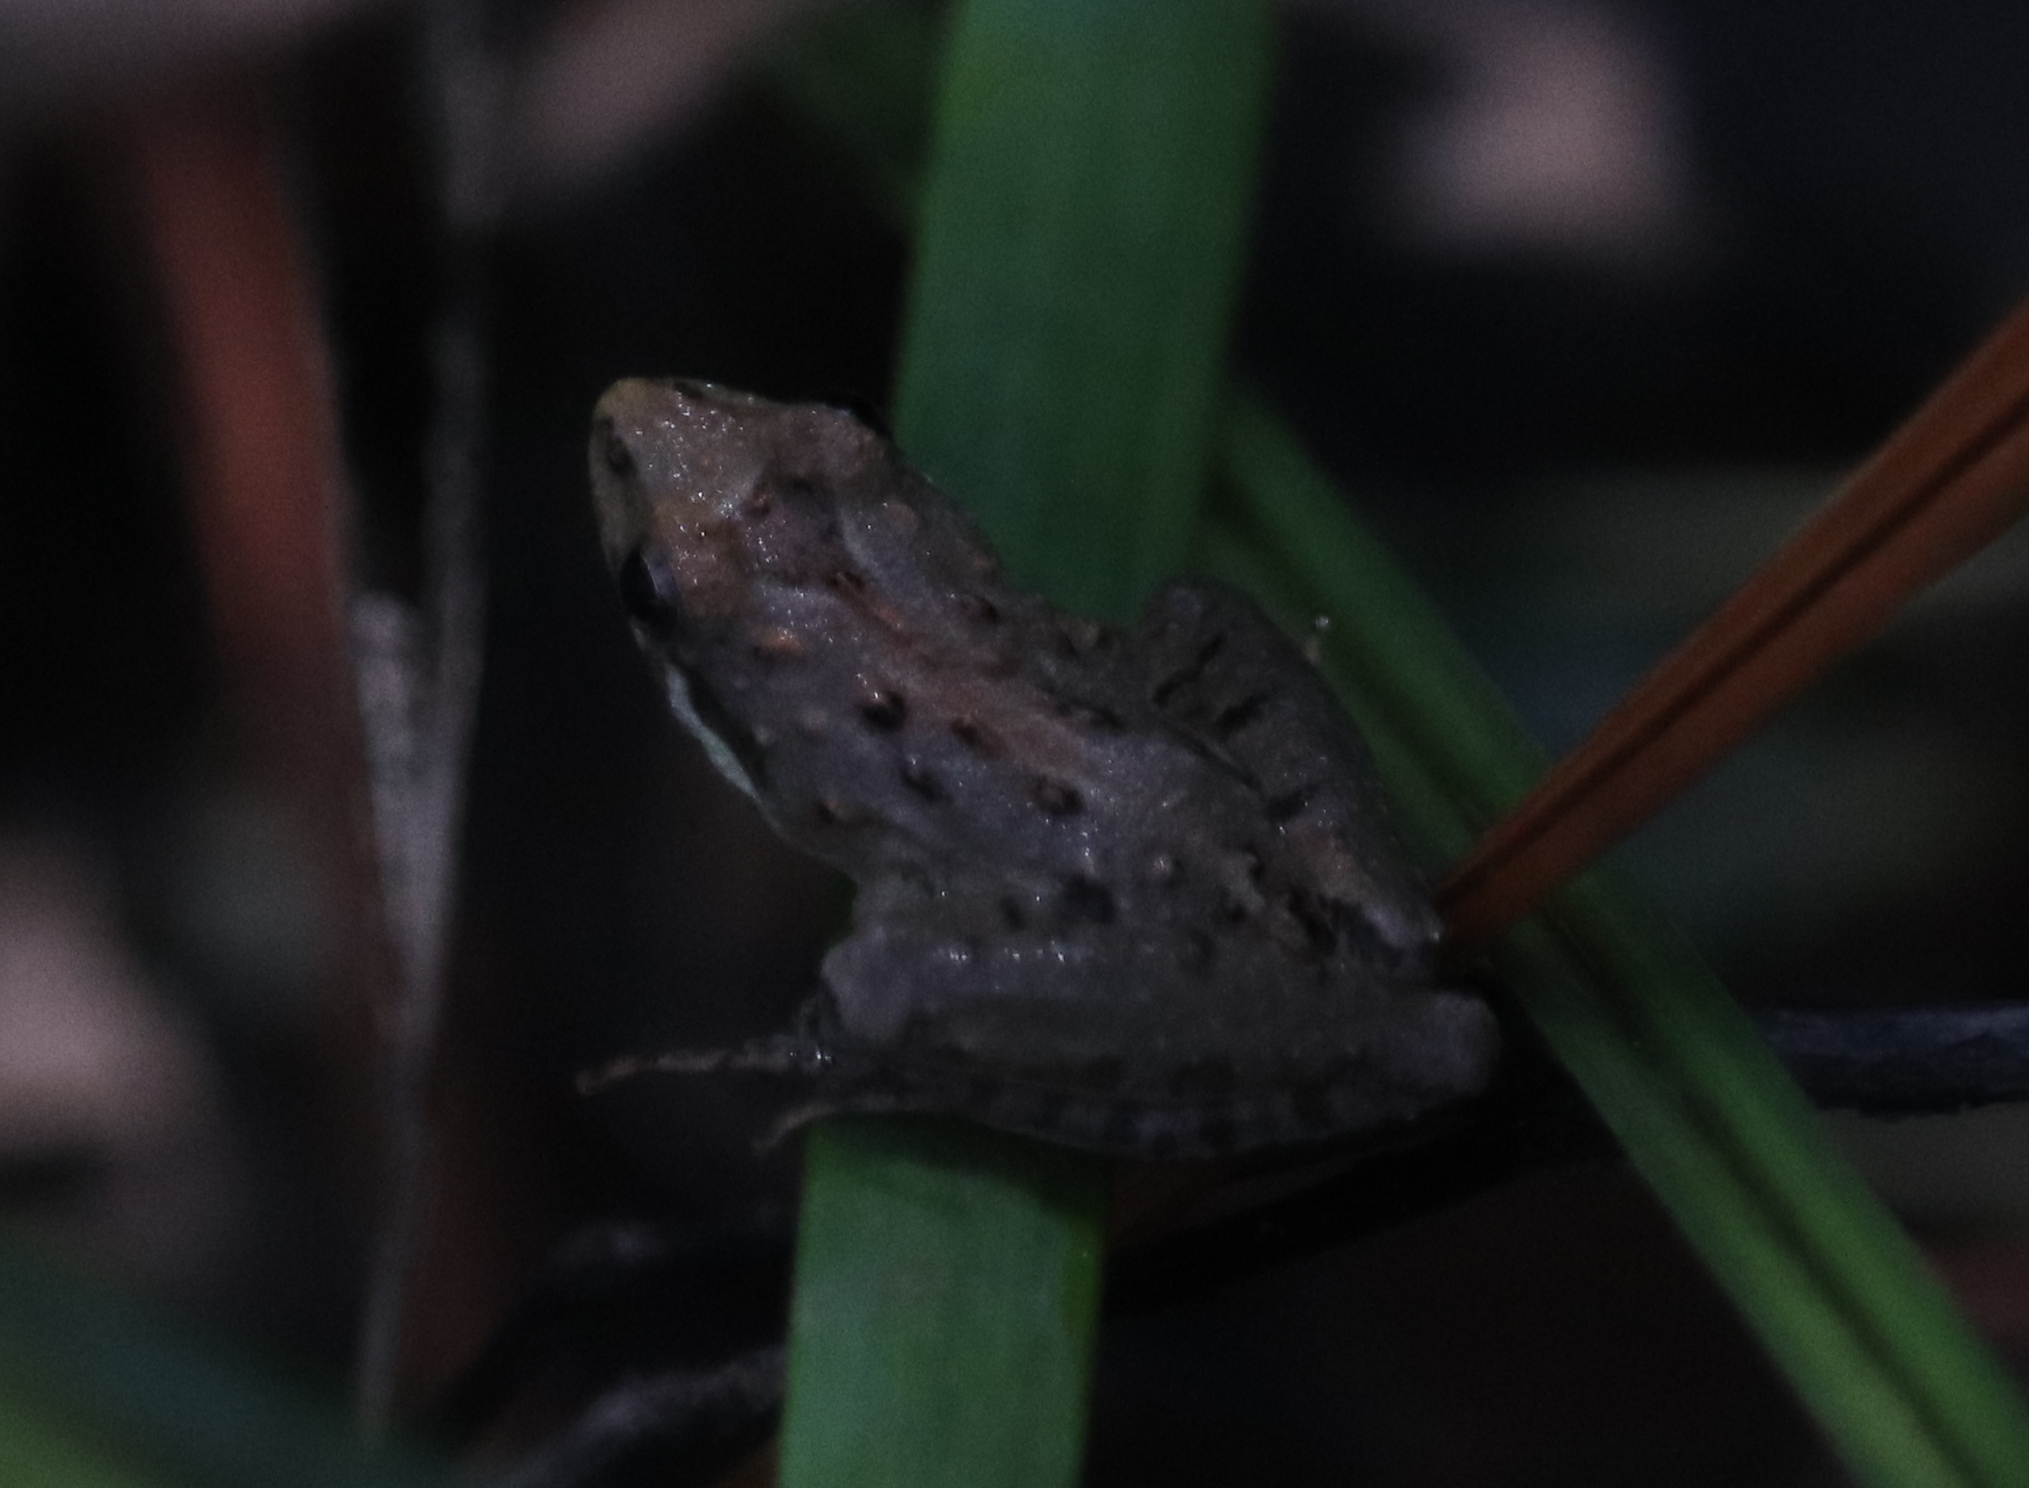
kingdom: Animalia
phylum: Chordata
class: Amphibia
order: Anura
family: Hylidae
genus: Acris
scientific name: Acris gryllus
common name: Southern cricket frog
